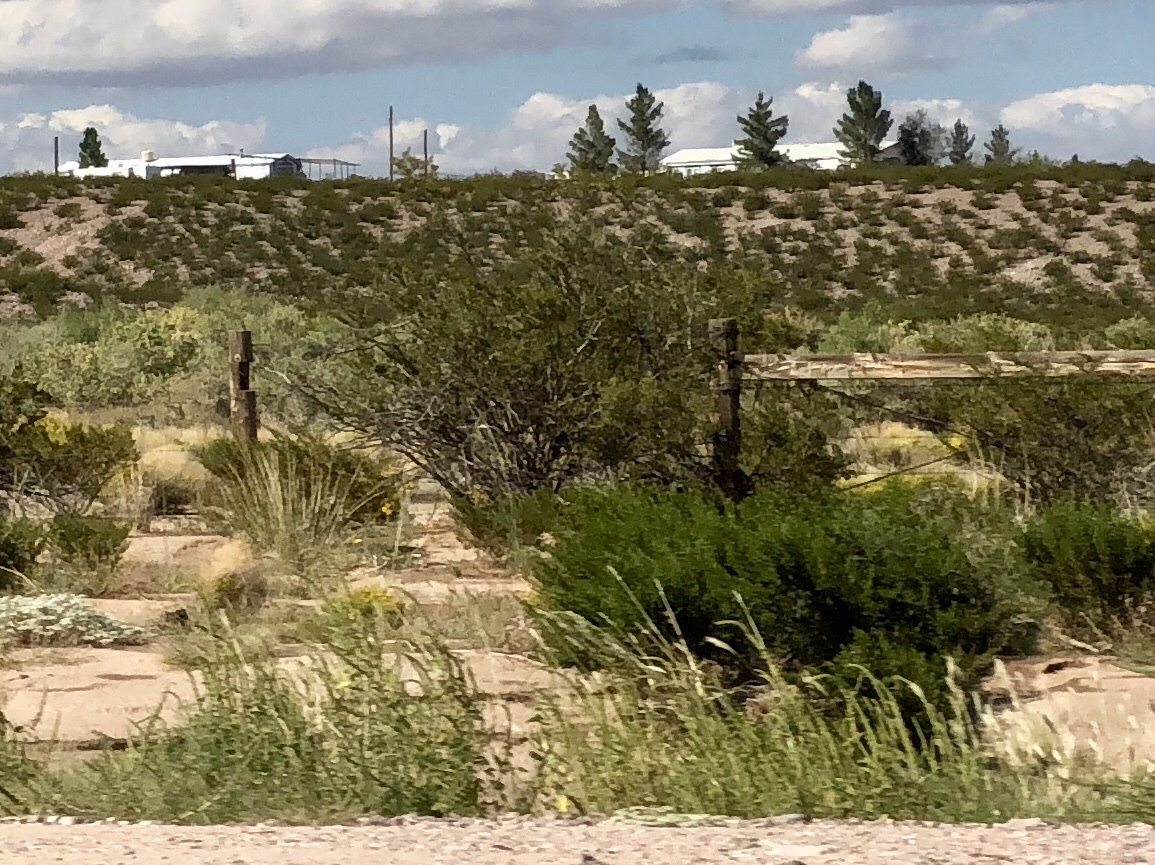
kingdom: Plantae
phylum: Tracheophyta
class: Magnoliopsida
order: Zygophyllales
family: Zygophyllaceae
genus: Larrea
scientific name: Larrea tridentata
